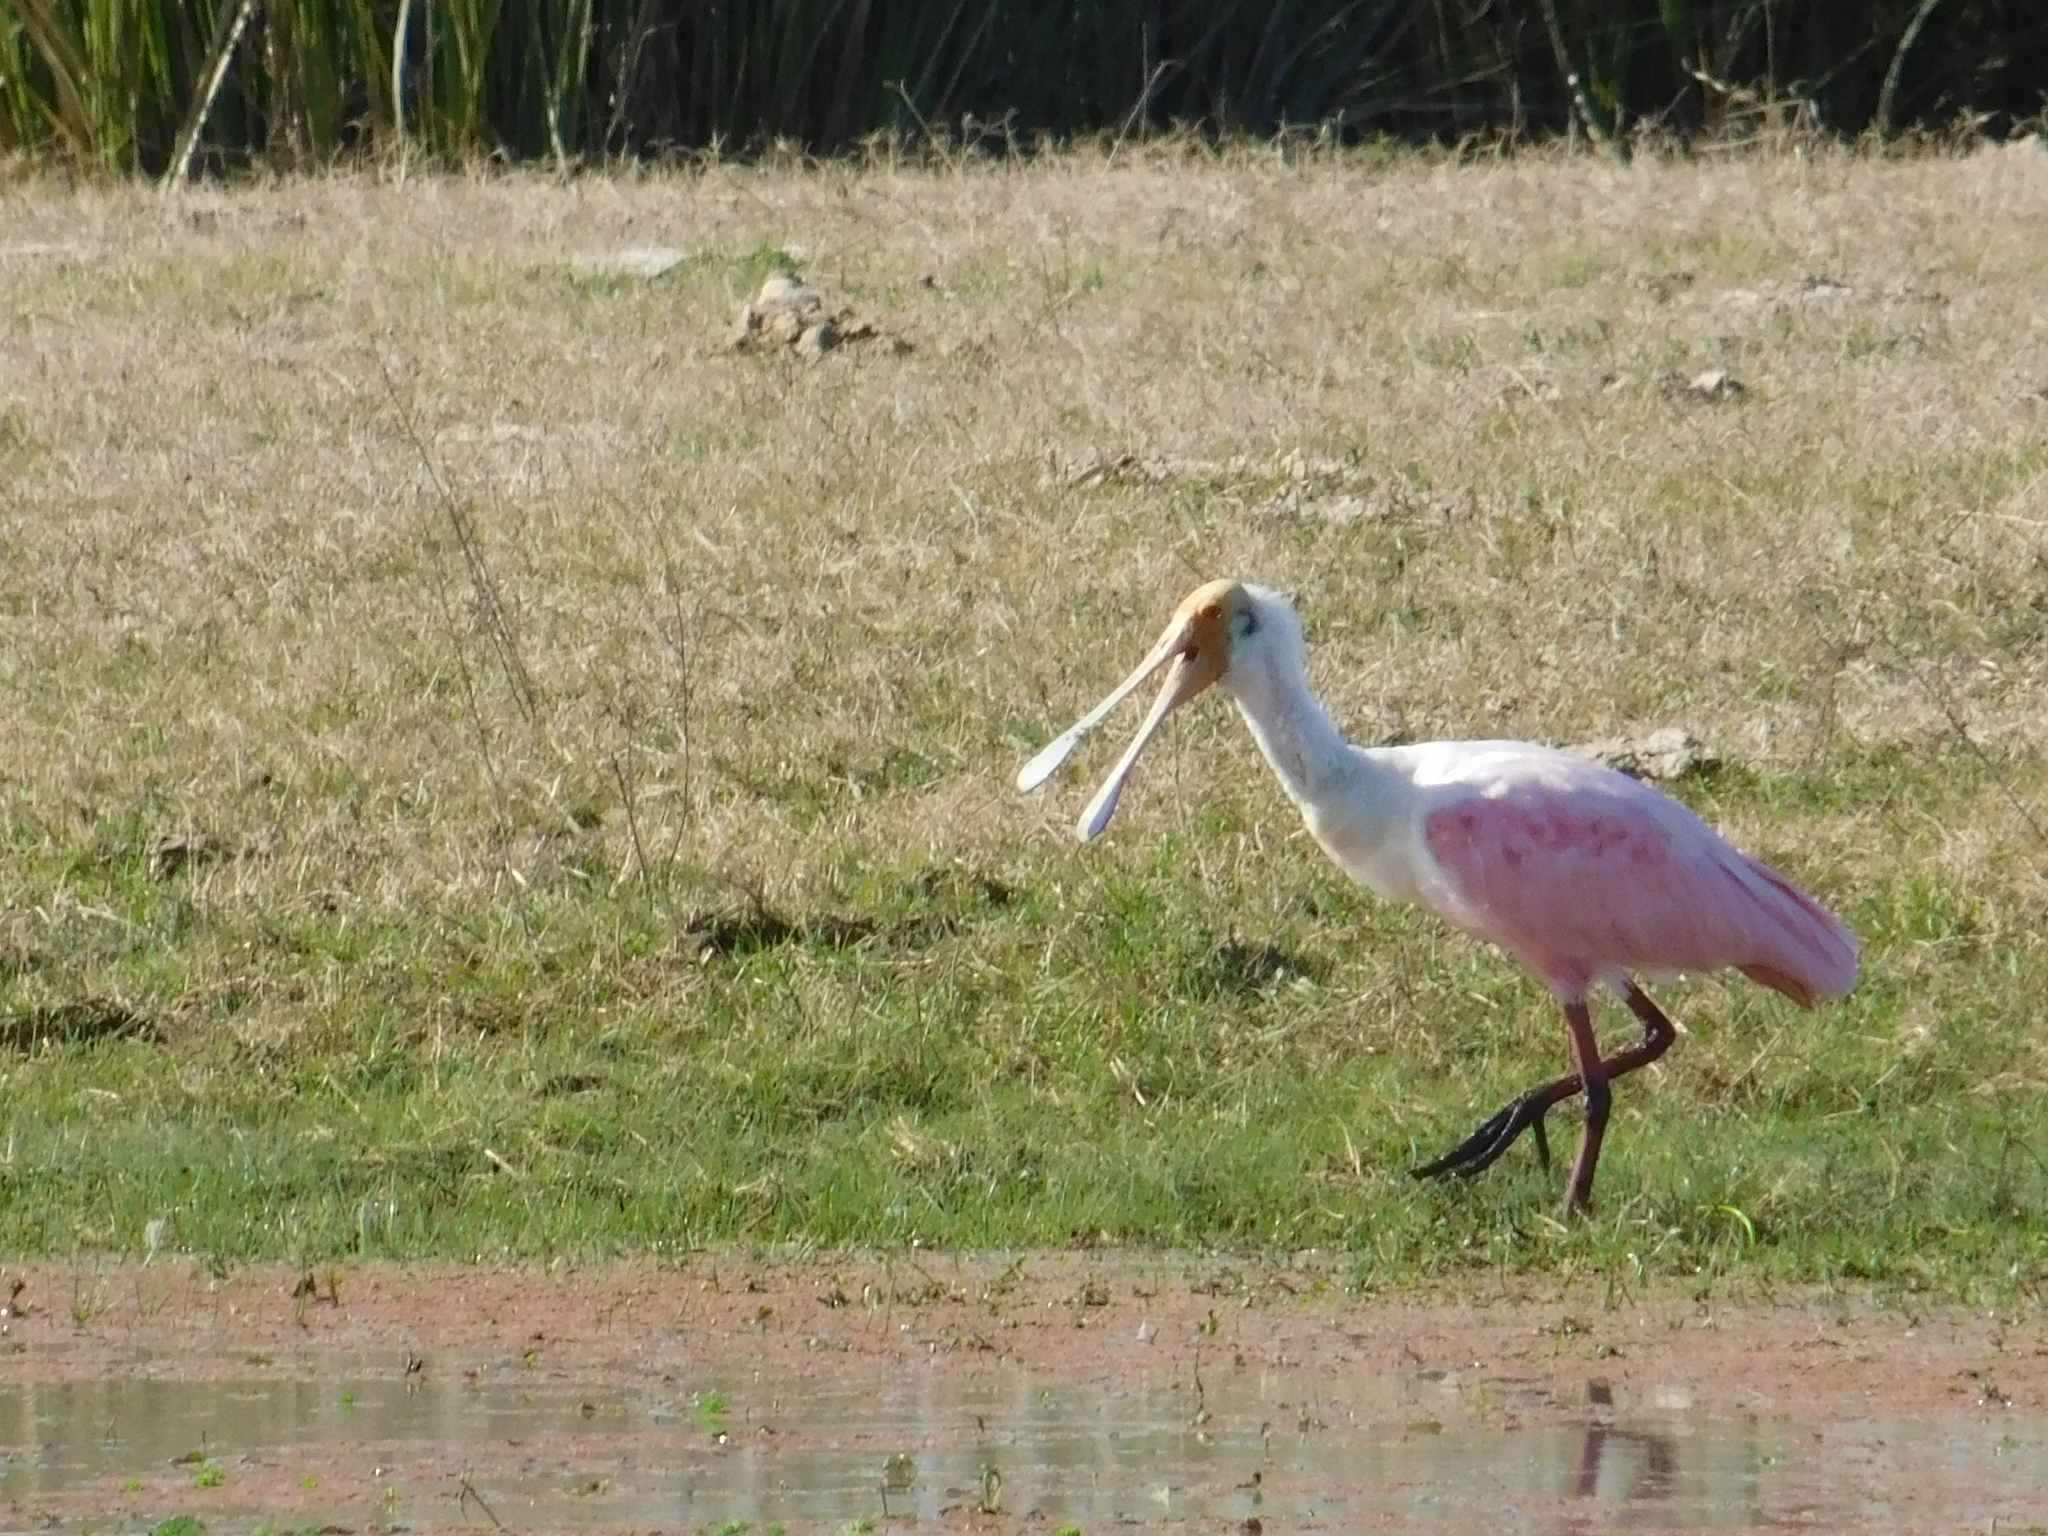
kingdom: Animalia
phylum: Chordata
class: Aves
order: Pelecaniformes
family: Threskiornithidae
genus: Platalea
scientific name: Platalea ajaja
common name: Roseate spoonbill
